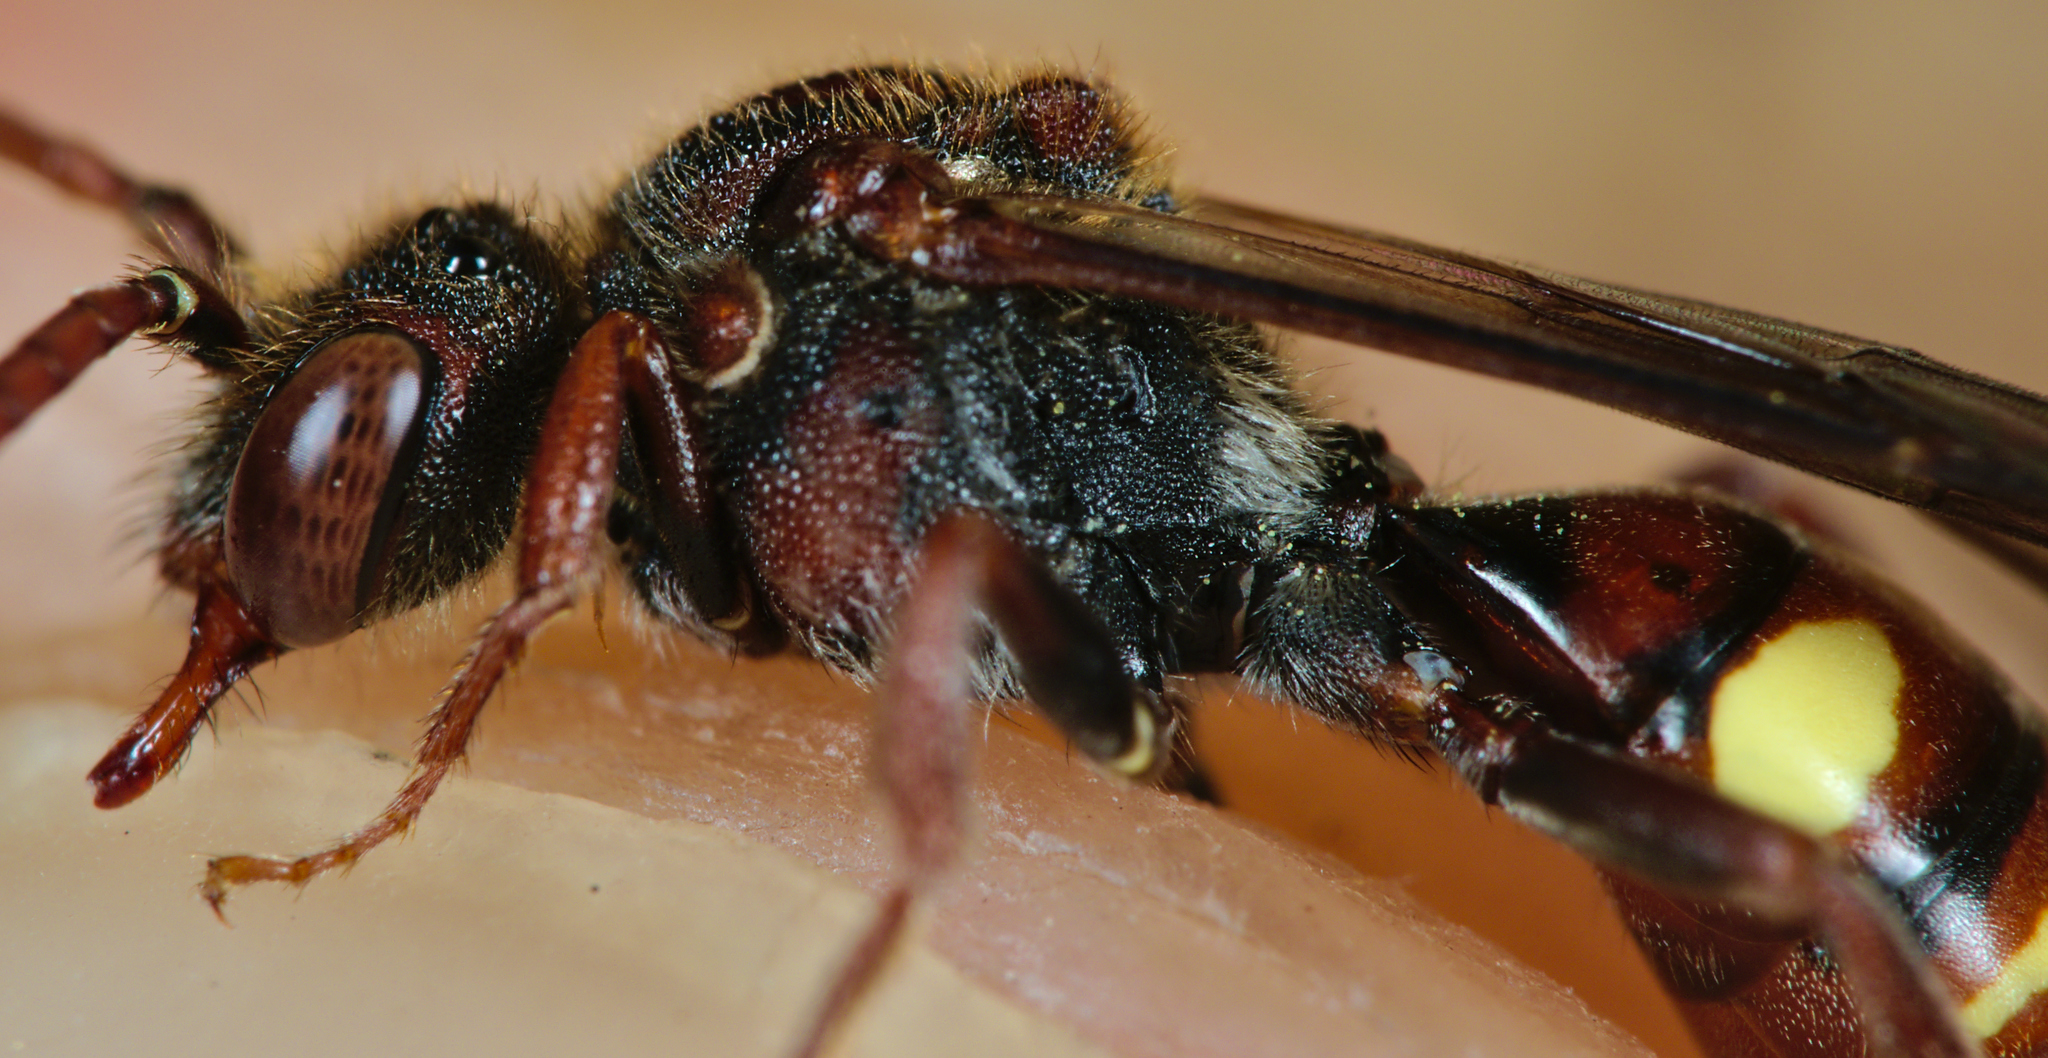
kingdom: Animalia
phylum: Arthropoda
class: Insecta
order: Hymenoptera
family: Apidae
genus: Nomada
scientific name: Nomada ruficornis
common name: Fork-jawed nomad bee
